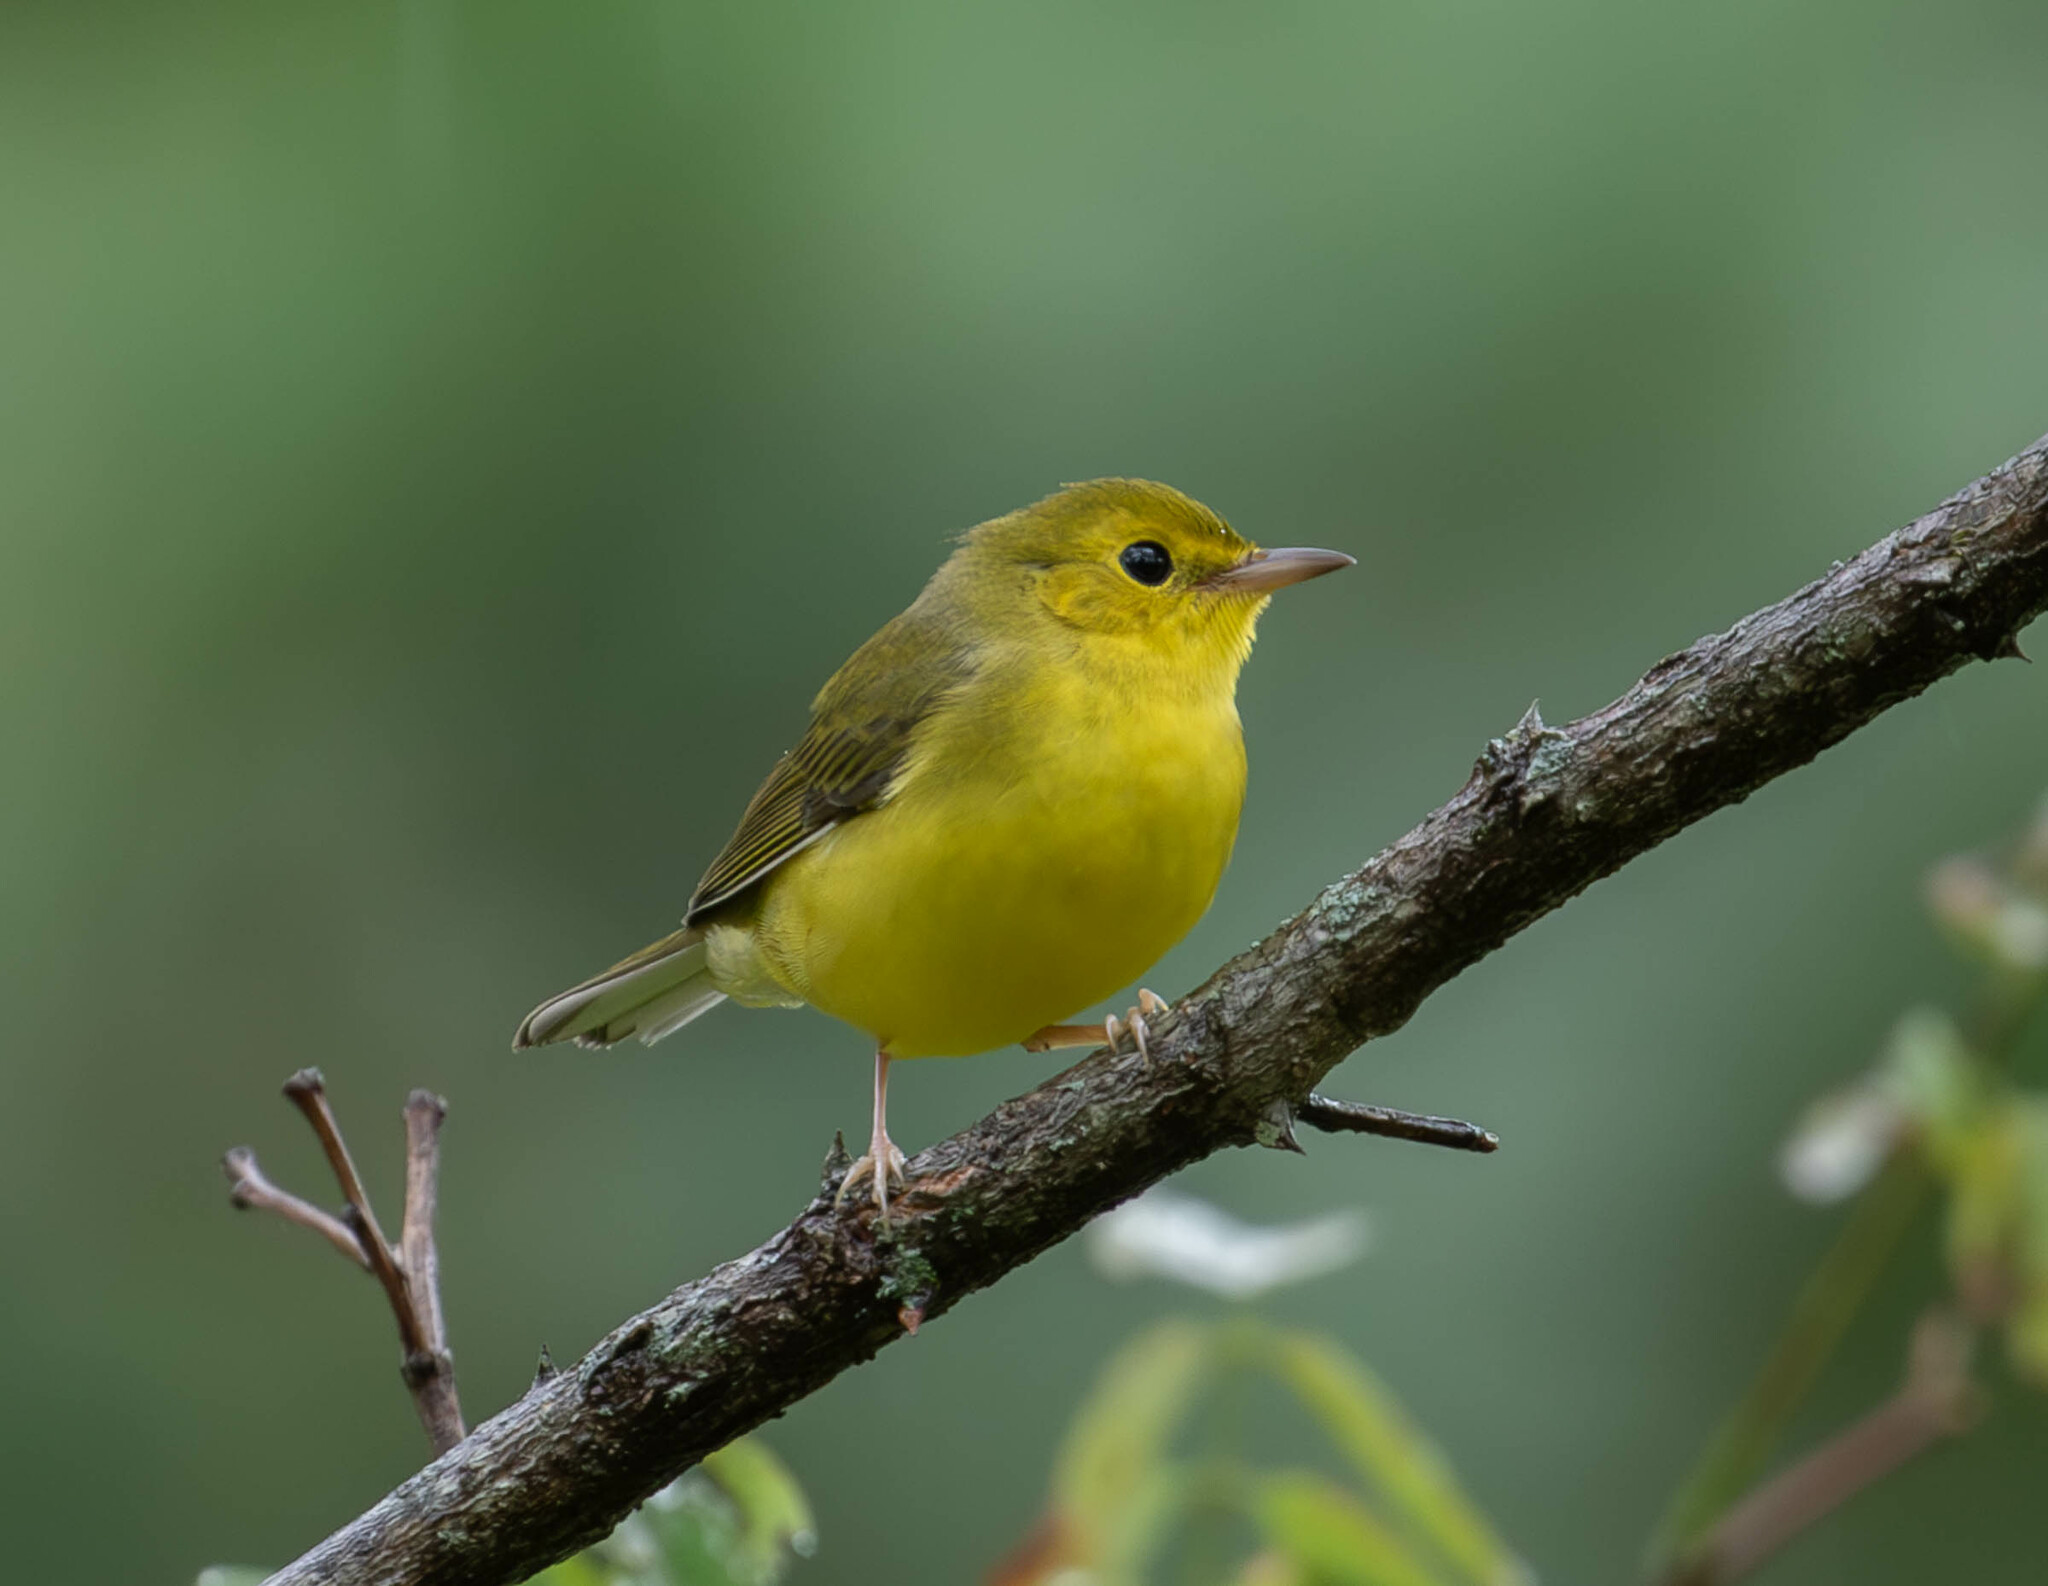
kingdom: Animalia
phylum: Chordata
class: Aves
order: Passeriformes
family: Parulidae
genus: Setophaga
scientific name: Setophaga citrina
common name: Hooded warbler
